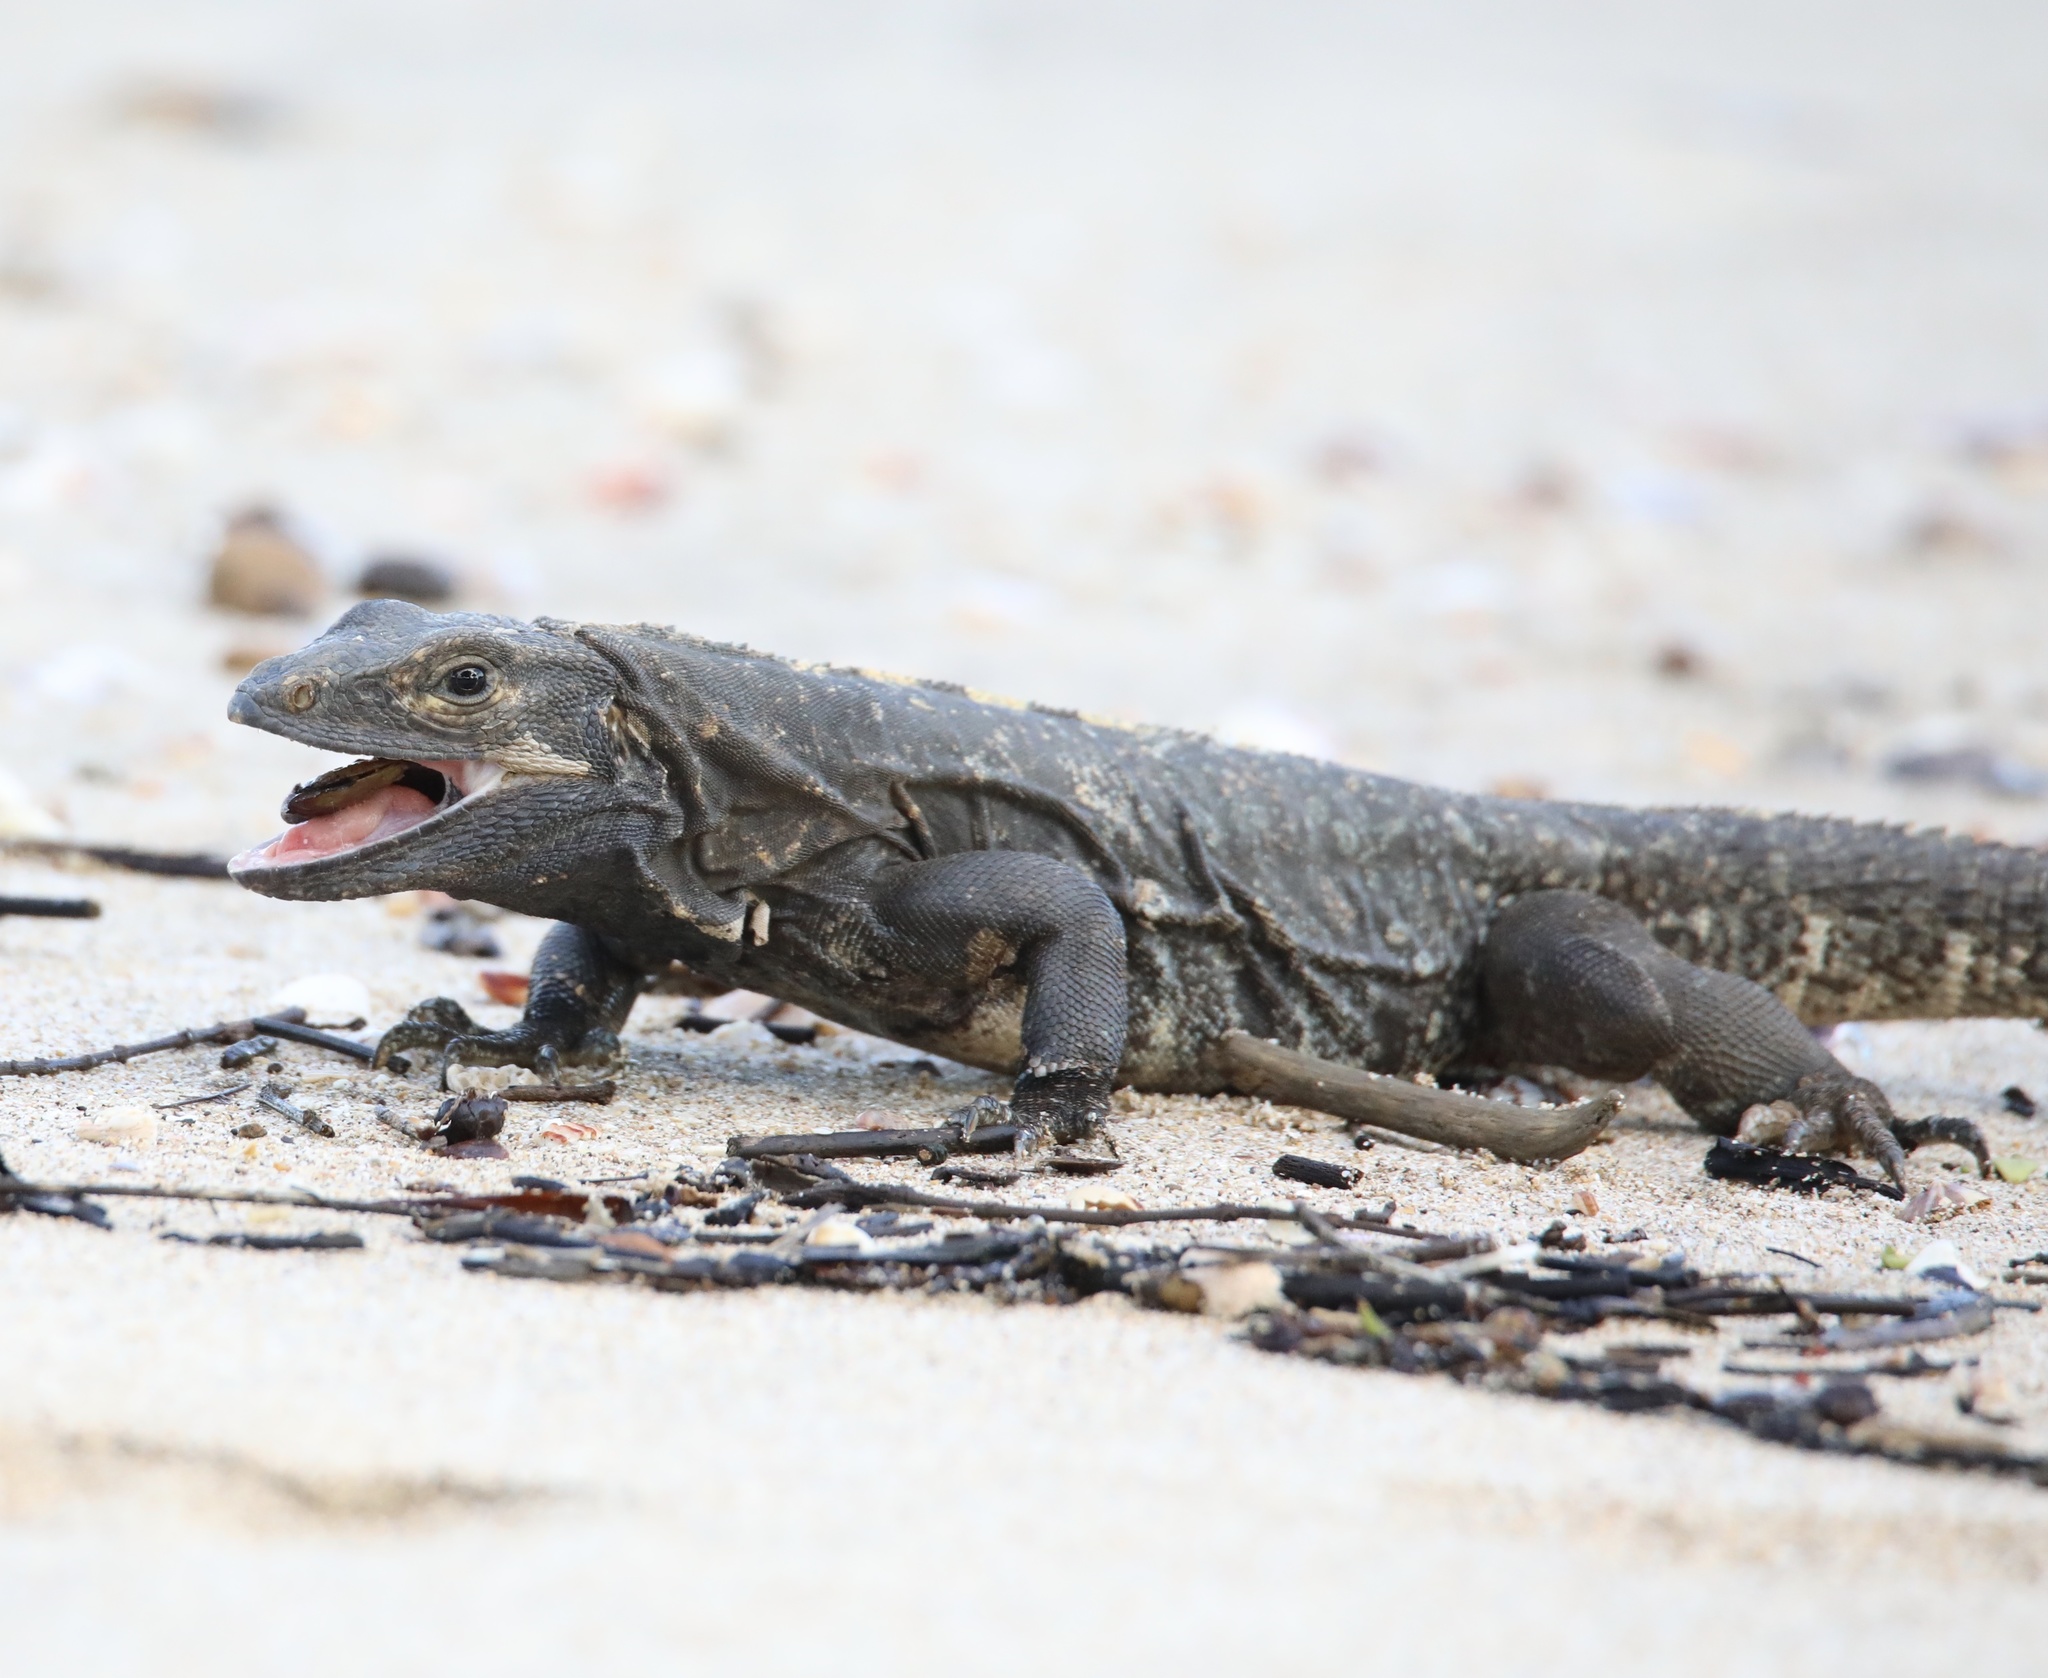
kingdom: Animalia
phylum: Chordata
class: Squamata
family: Iguanidae
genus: Ctenosaura
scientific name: Ctenosaura similis
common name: Black spiny-tailed iguana
